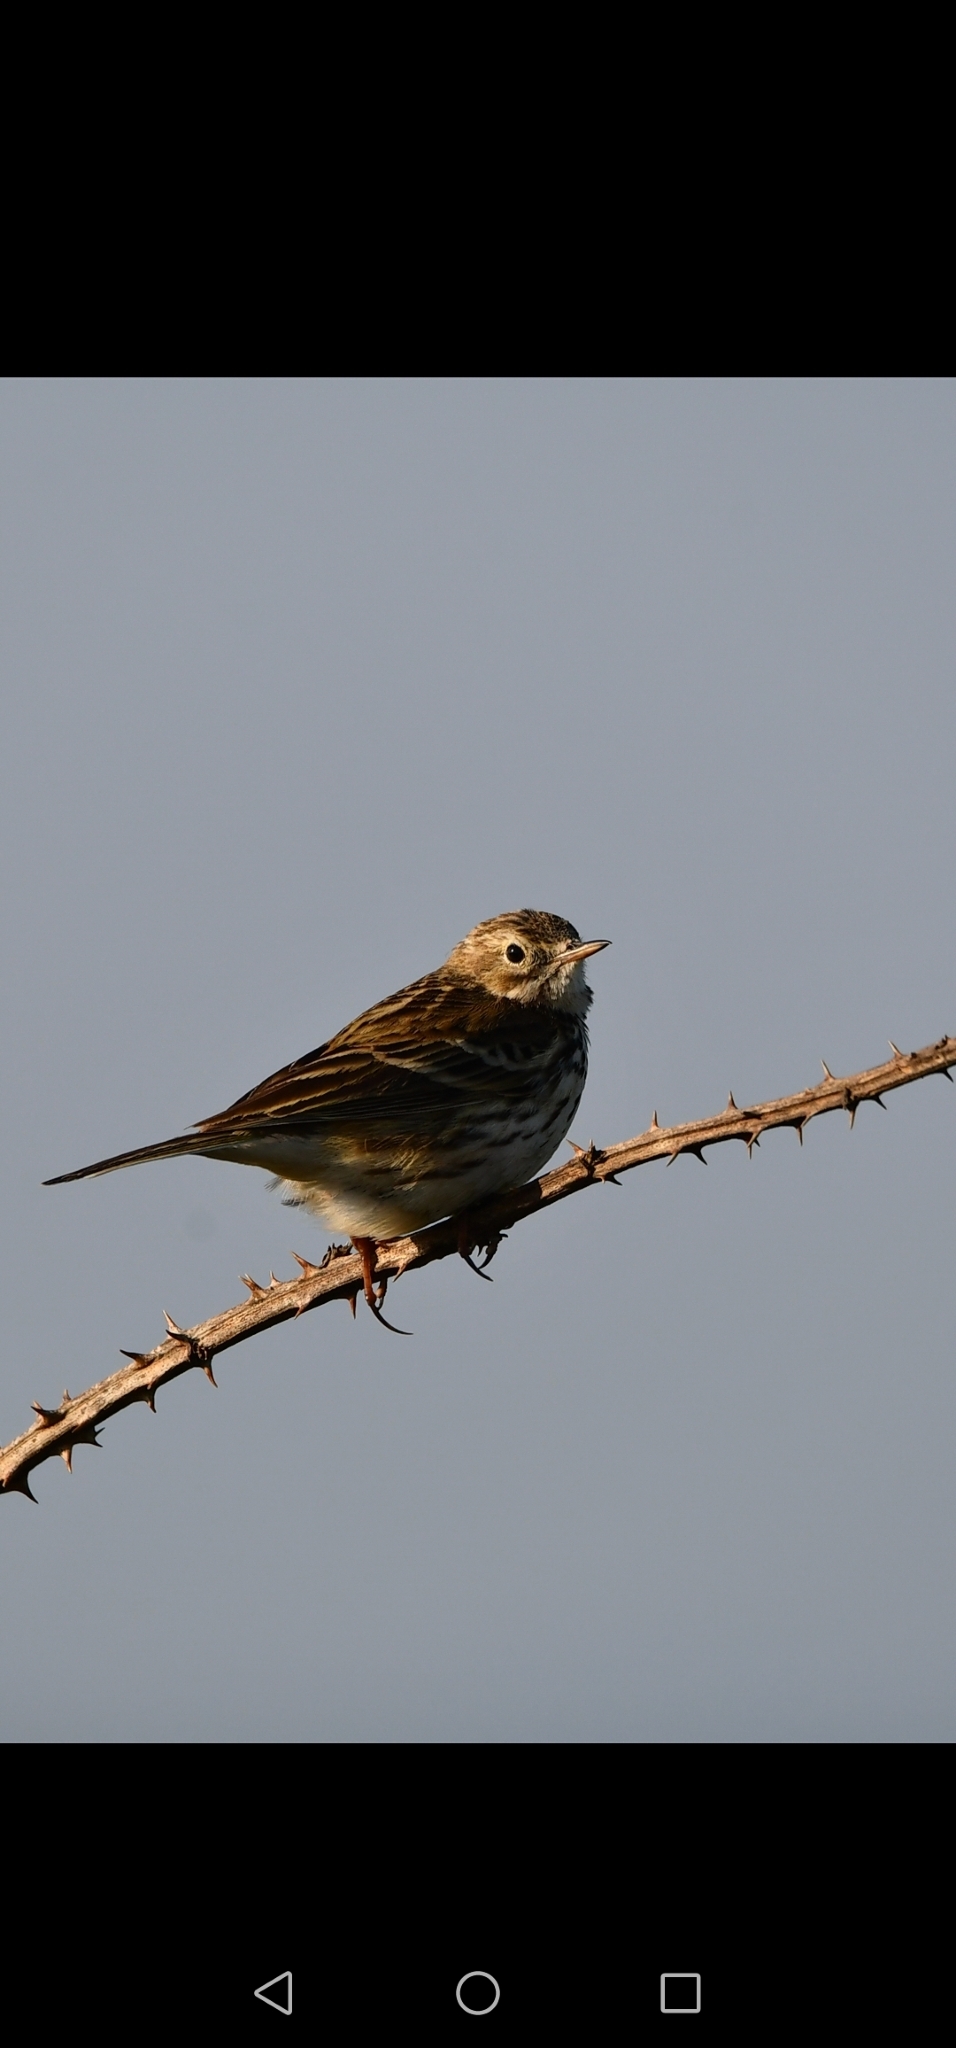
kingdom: Animalia
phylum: Chordata
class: Aves
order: Passeriformes
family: Motacillidae
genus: Anthus
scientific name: Anthus pratensis
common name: Meadow pipit
